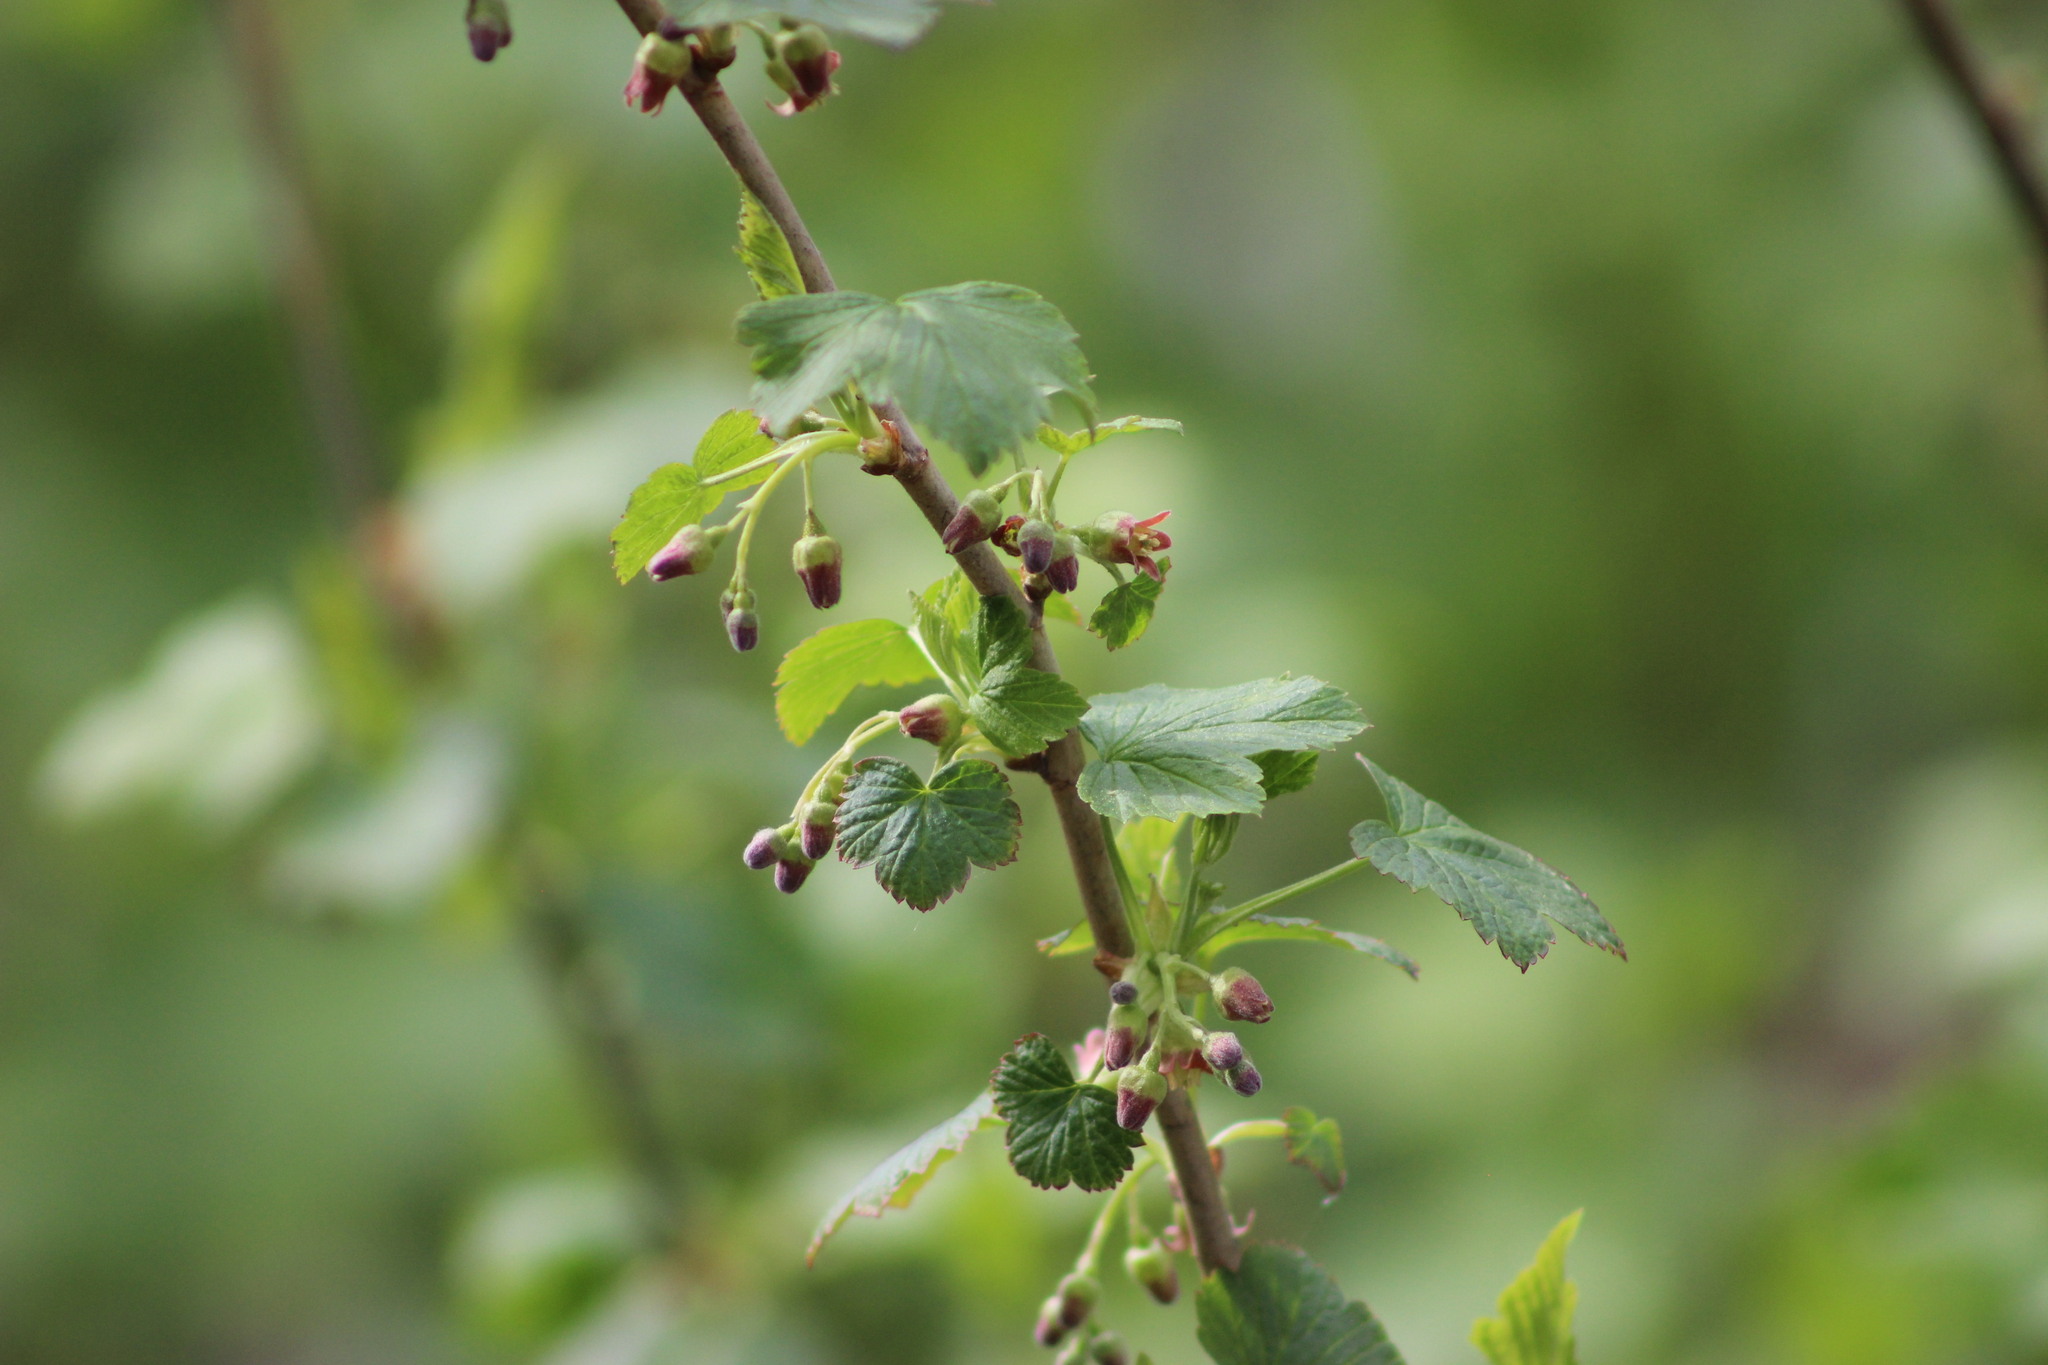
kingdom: Plantae
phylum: Tracheophyta
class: Magnoliopsida
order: Saxifragales
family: Grossulariaceae
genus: Ribes
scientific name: Ribes nigrum
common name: Black currant
